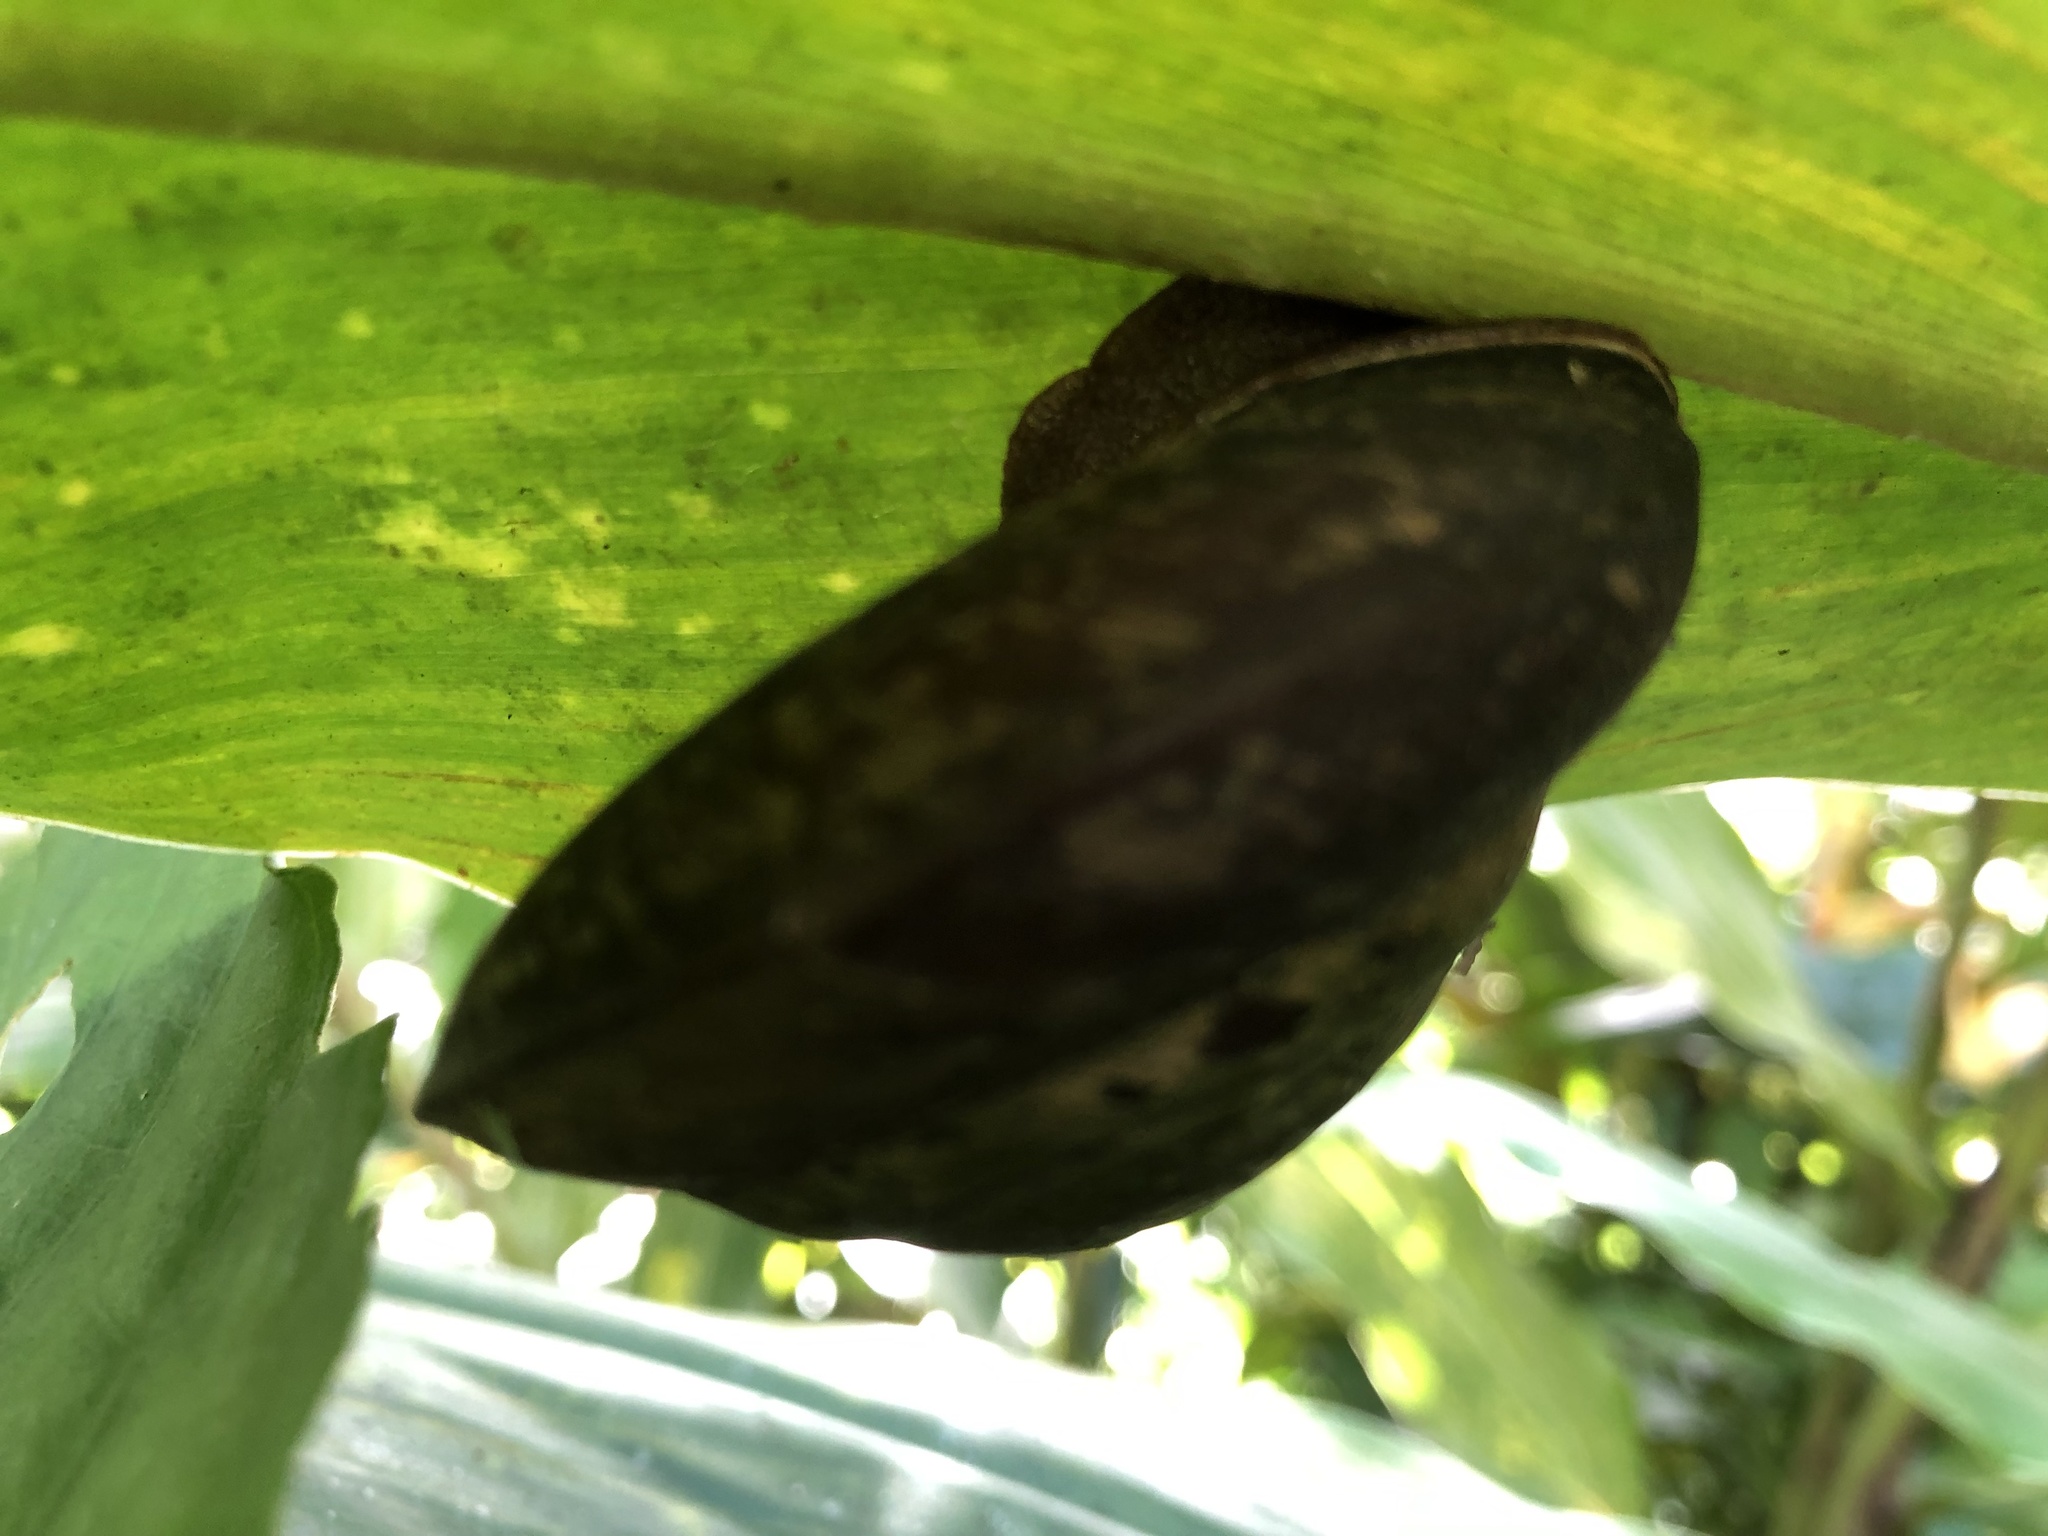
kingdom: Animalia
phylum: Mollusca
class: Gastropoda
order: Stylommatophora
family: Solaropsidae
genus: Caracolus
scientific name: Caracolus carocolla
